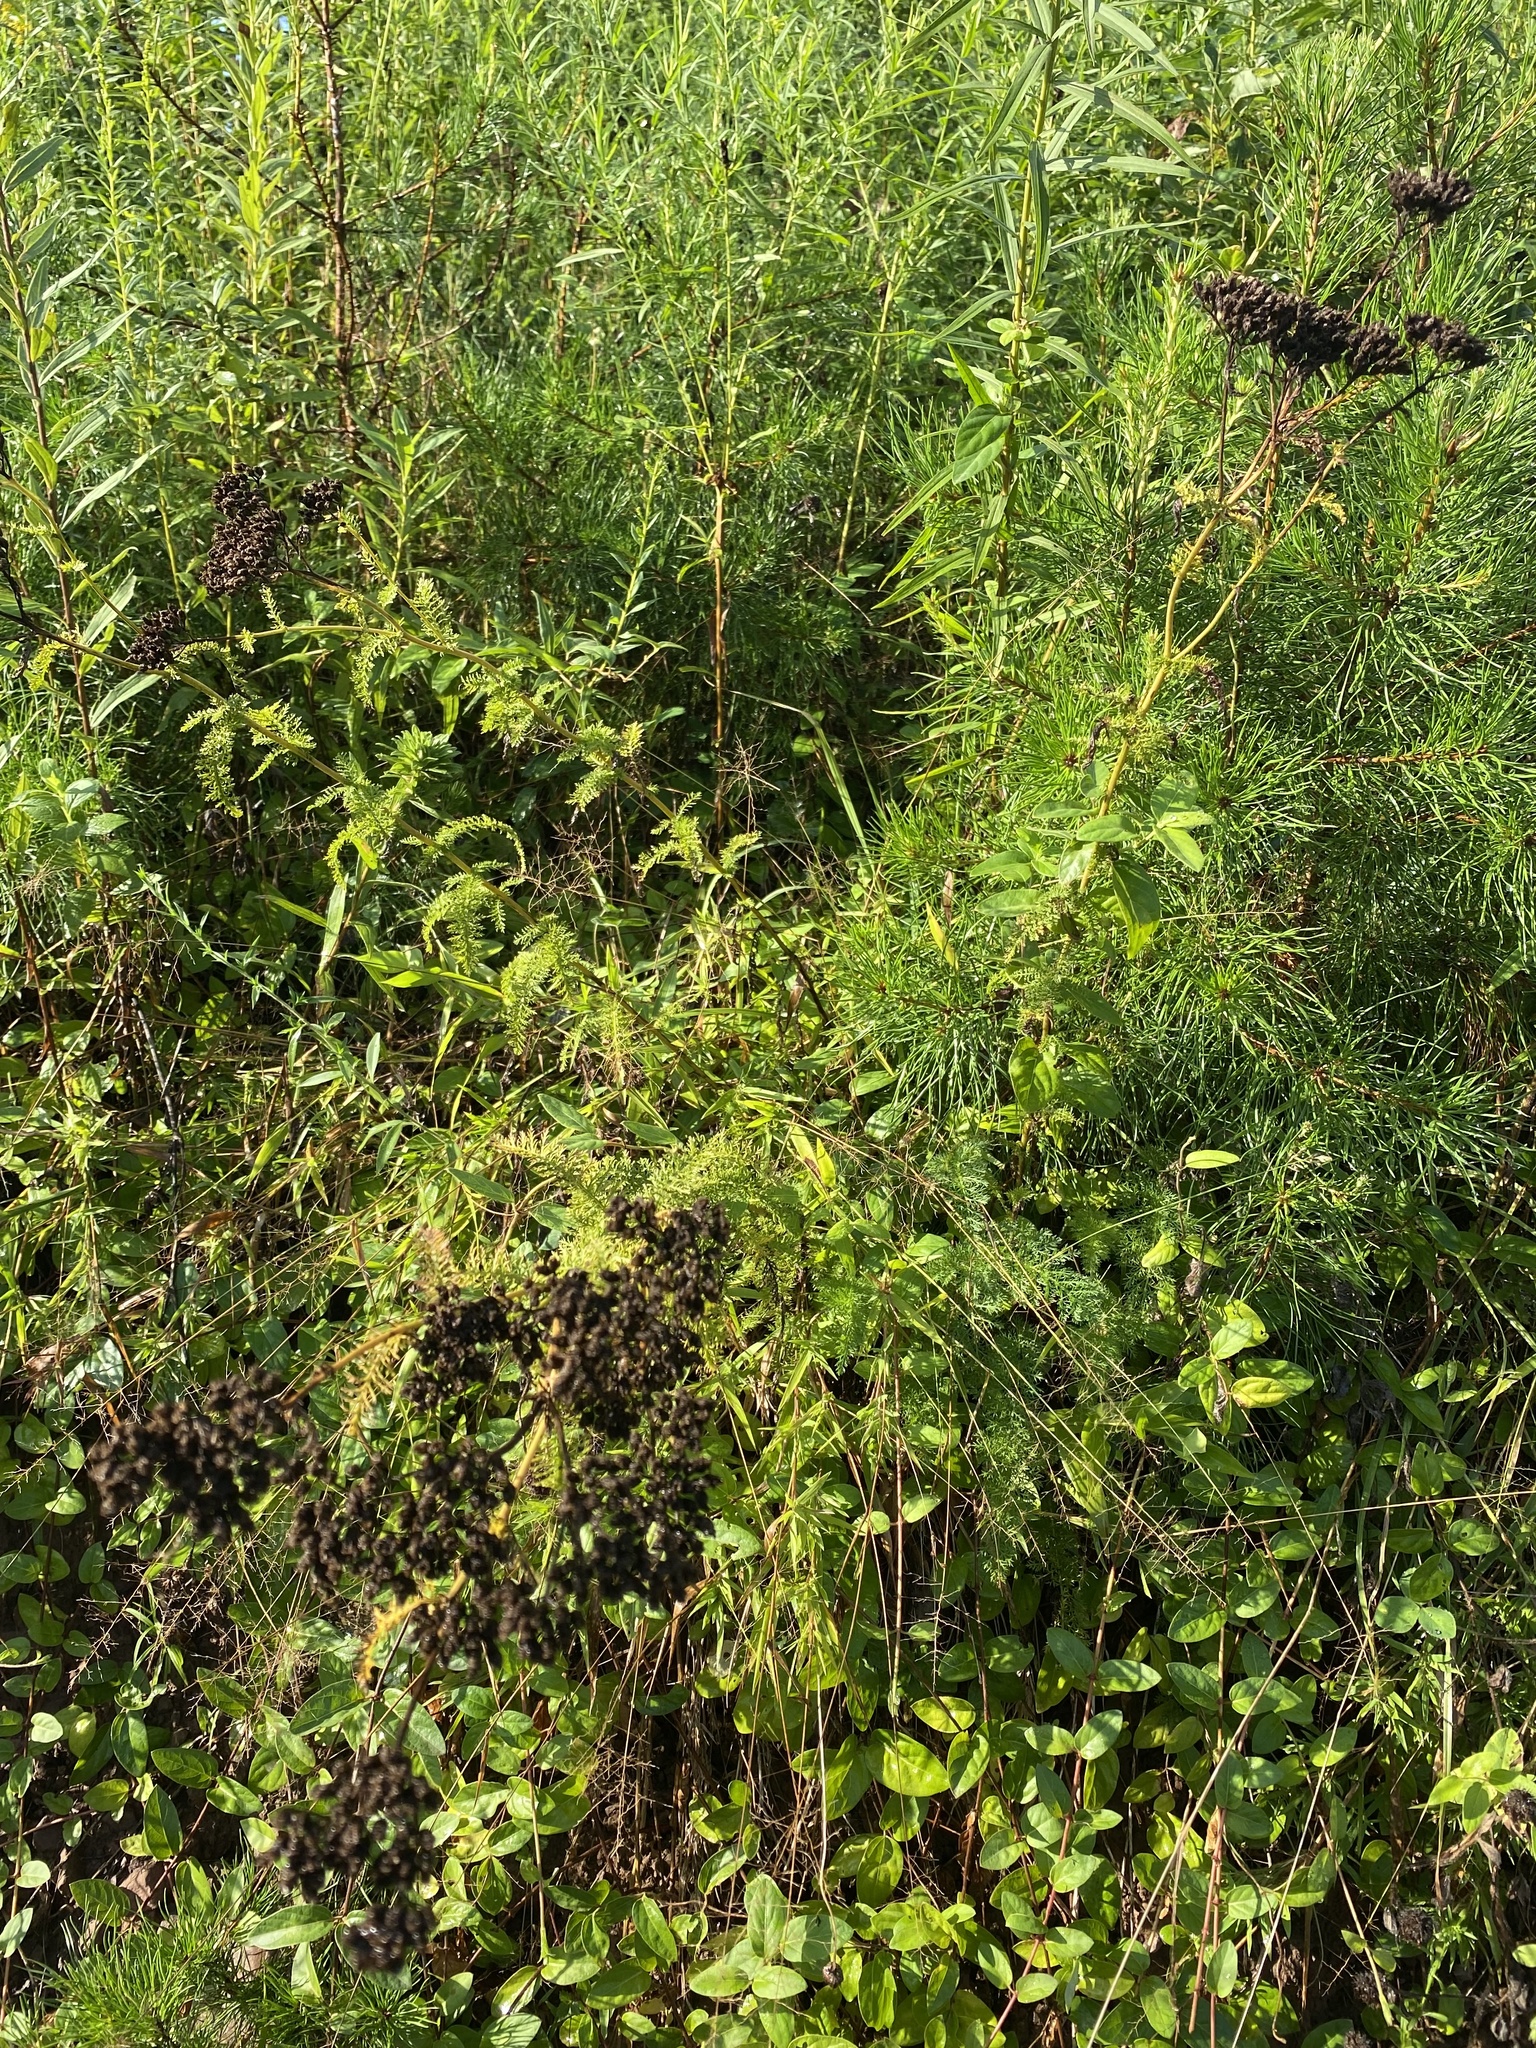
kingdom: Plantae
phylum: Tracheophyta
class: Magnoliopsida
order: Asterales
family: Asteraceae
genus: Achillea
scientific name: Achillea millefolium
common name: Yarrow
